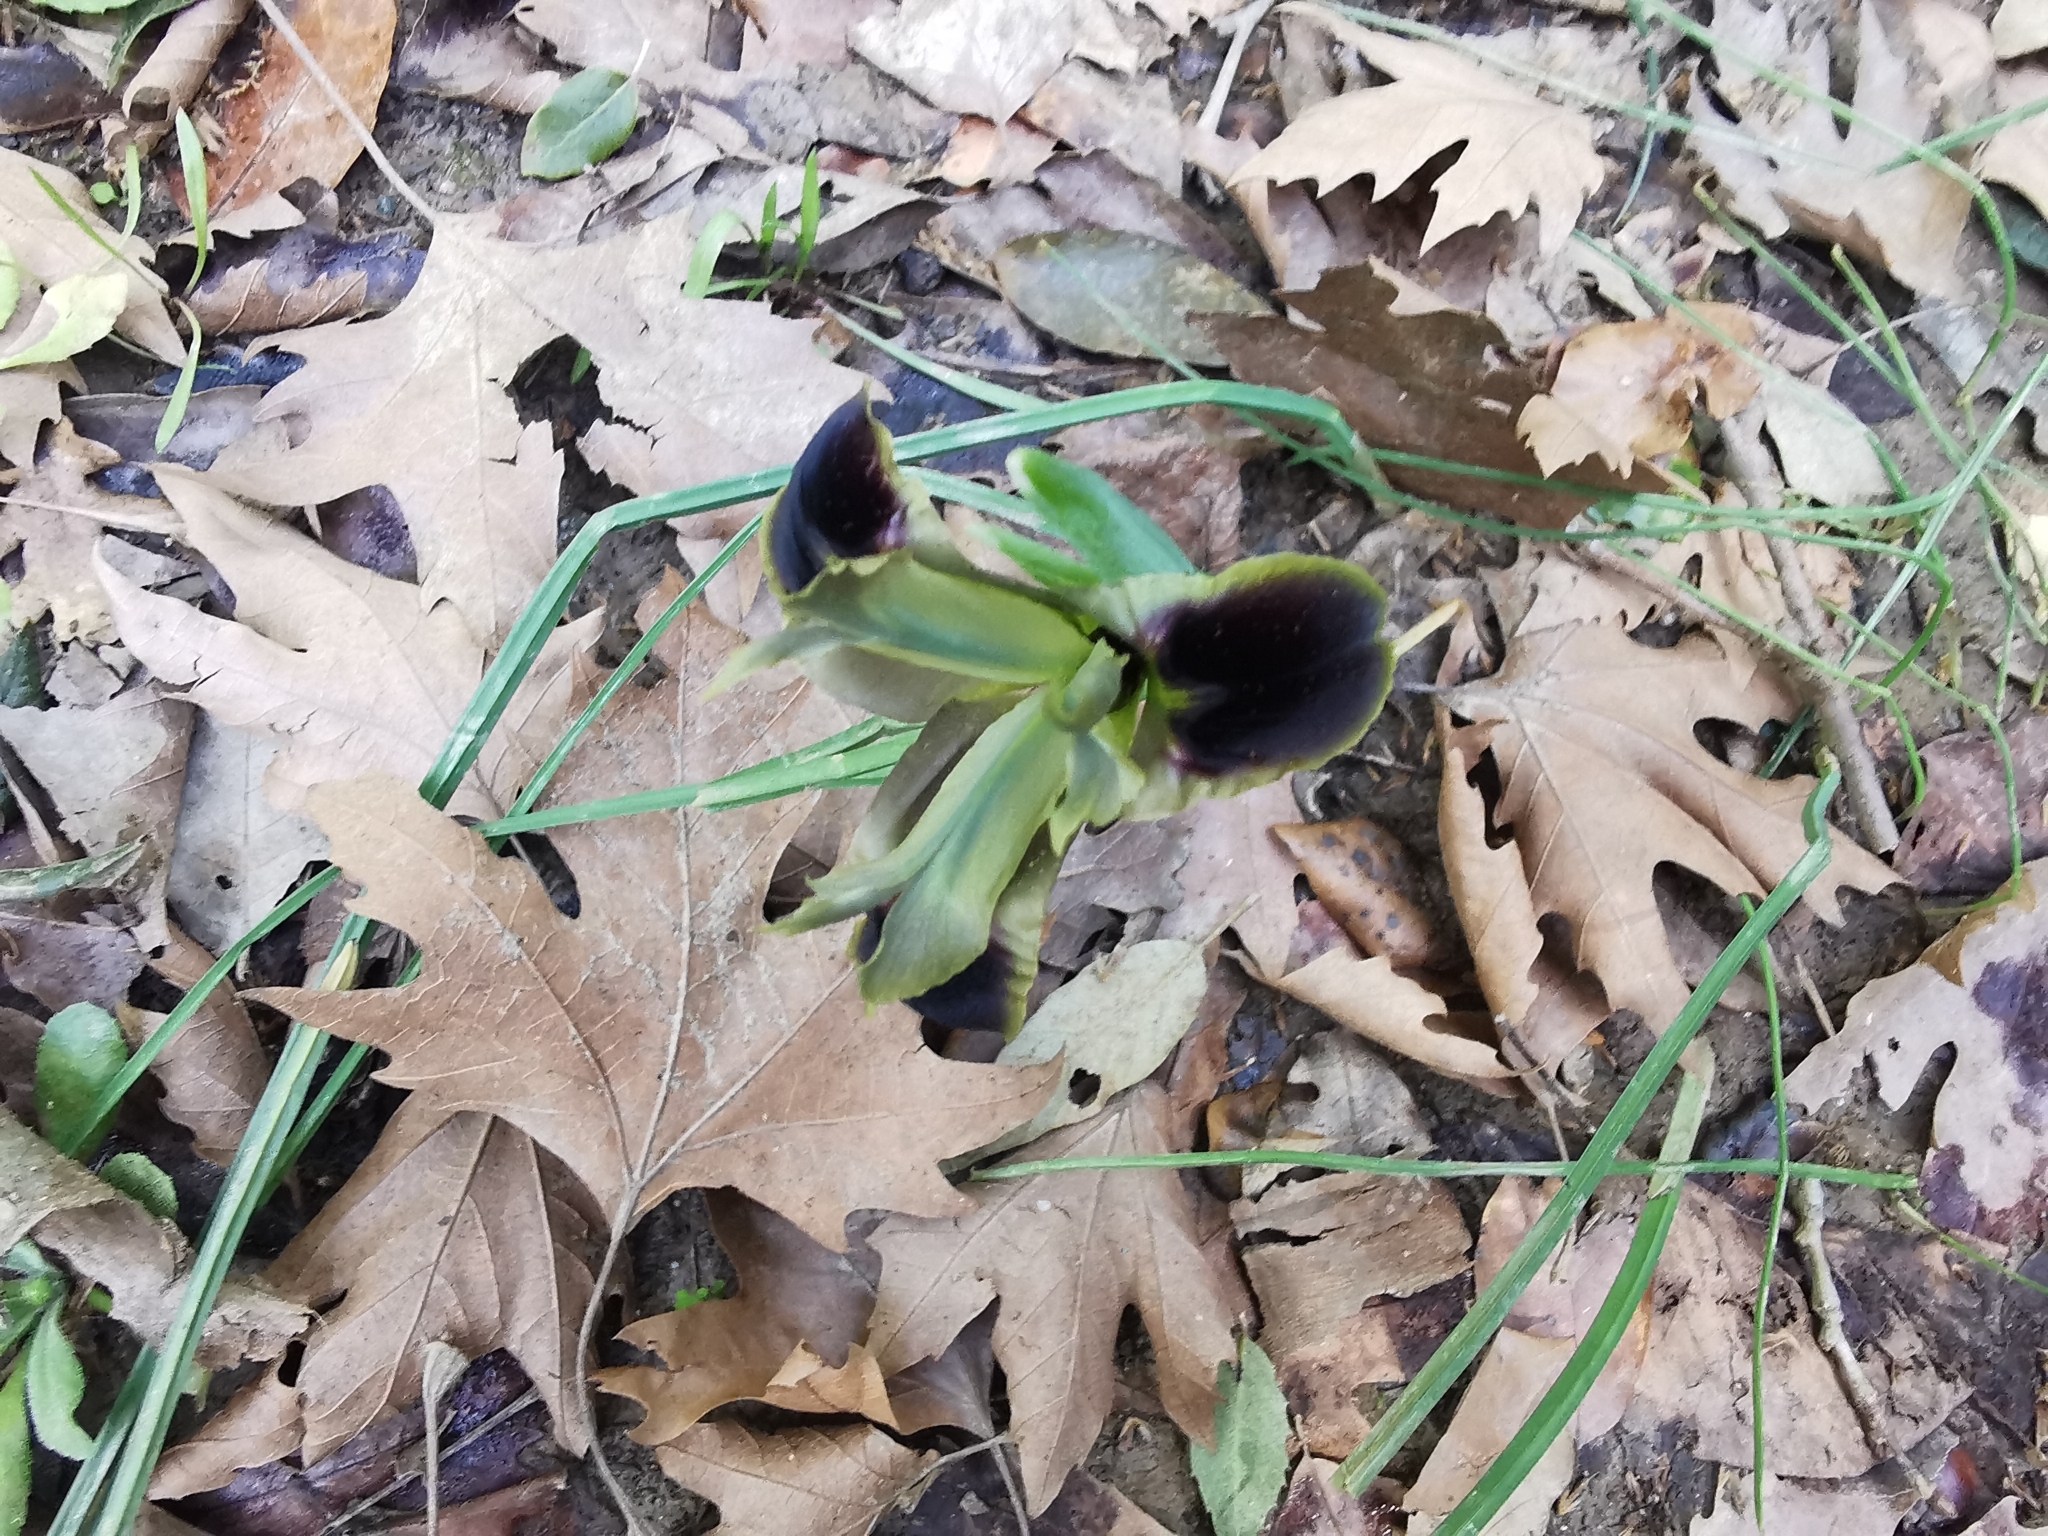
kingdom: Plantae
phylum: Tracheophyta
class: Liliopsida
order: Asparagales
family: Iridaceae
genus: Iris
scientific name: Iris tuberosa
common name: Snake's-head iris
